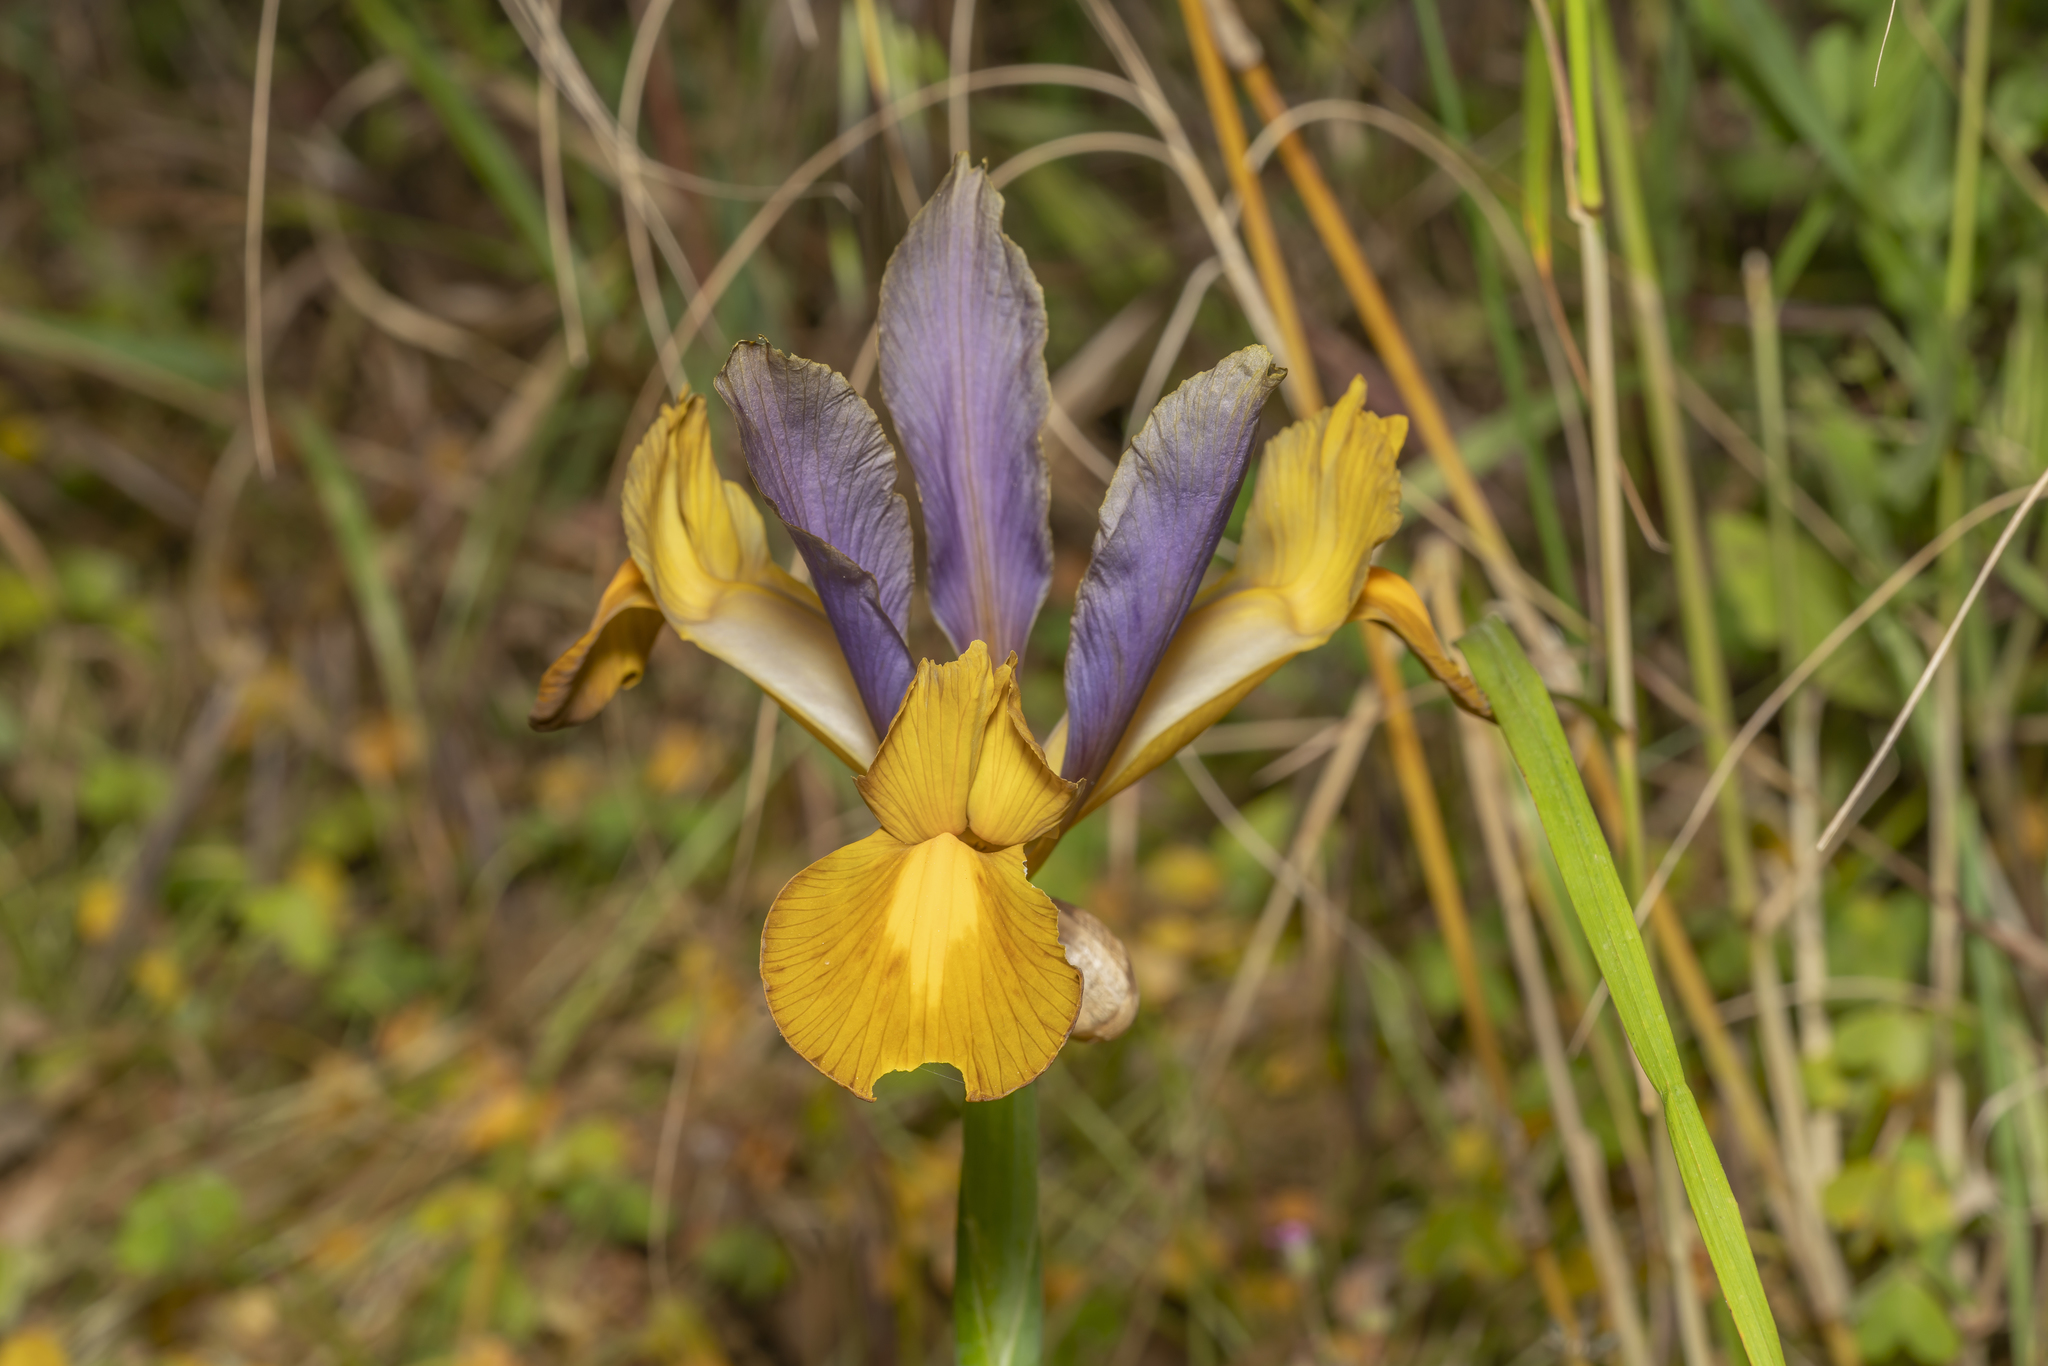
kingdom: Plantae
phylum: Tracheophyta
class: Liliopsida
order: Asparagales
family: Iridaceae
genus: Iris
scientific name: Iris hollandica
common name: Dutch iris
